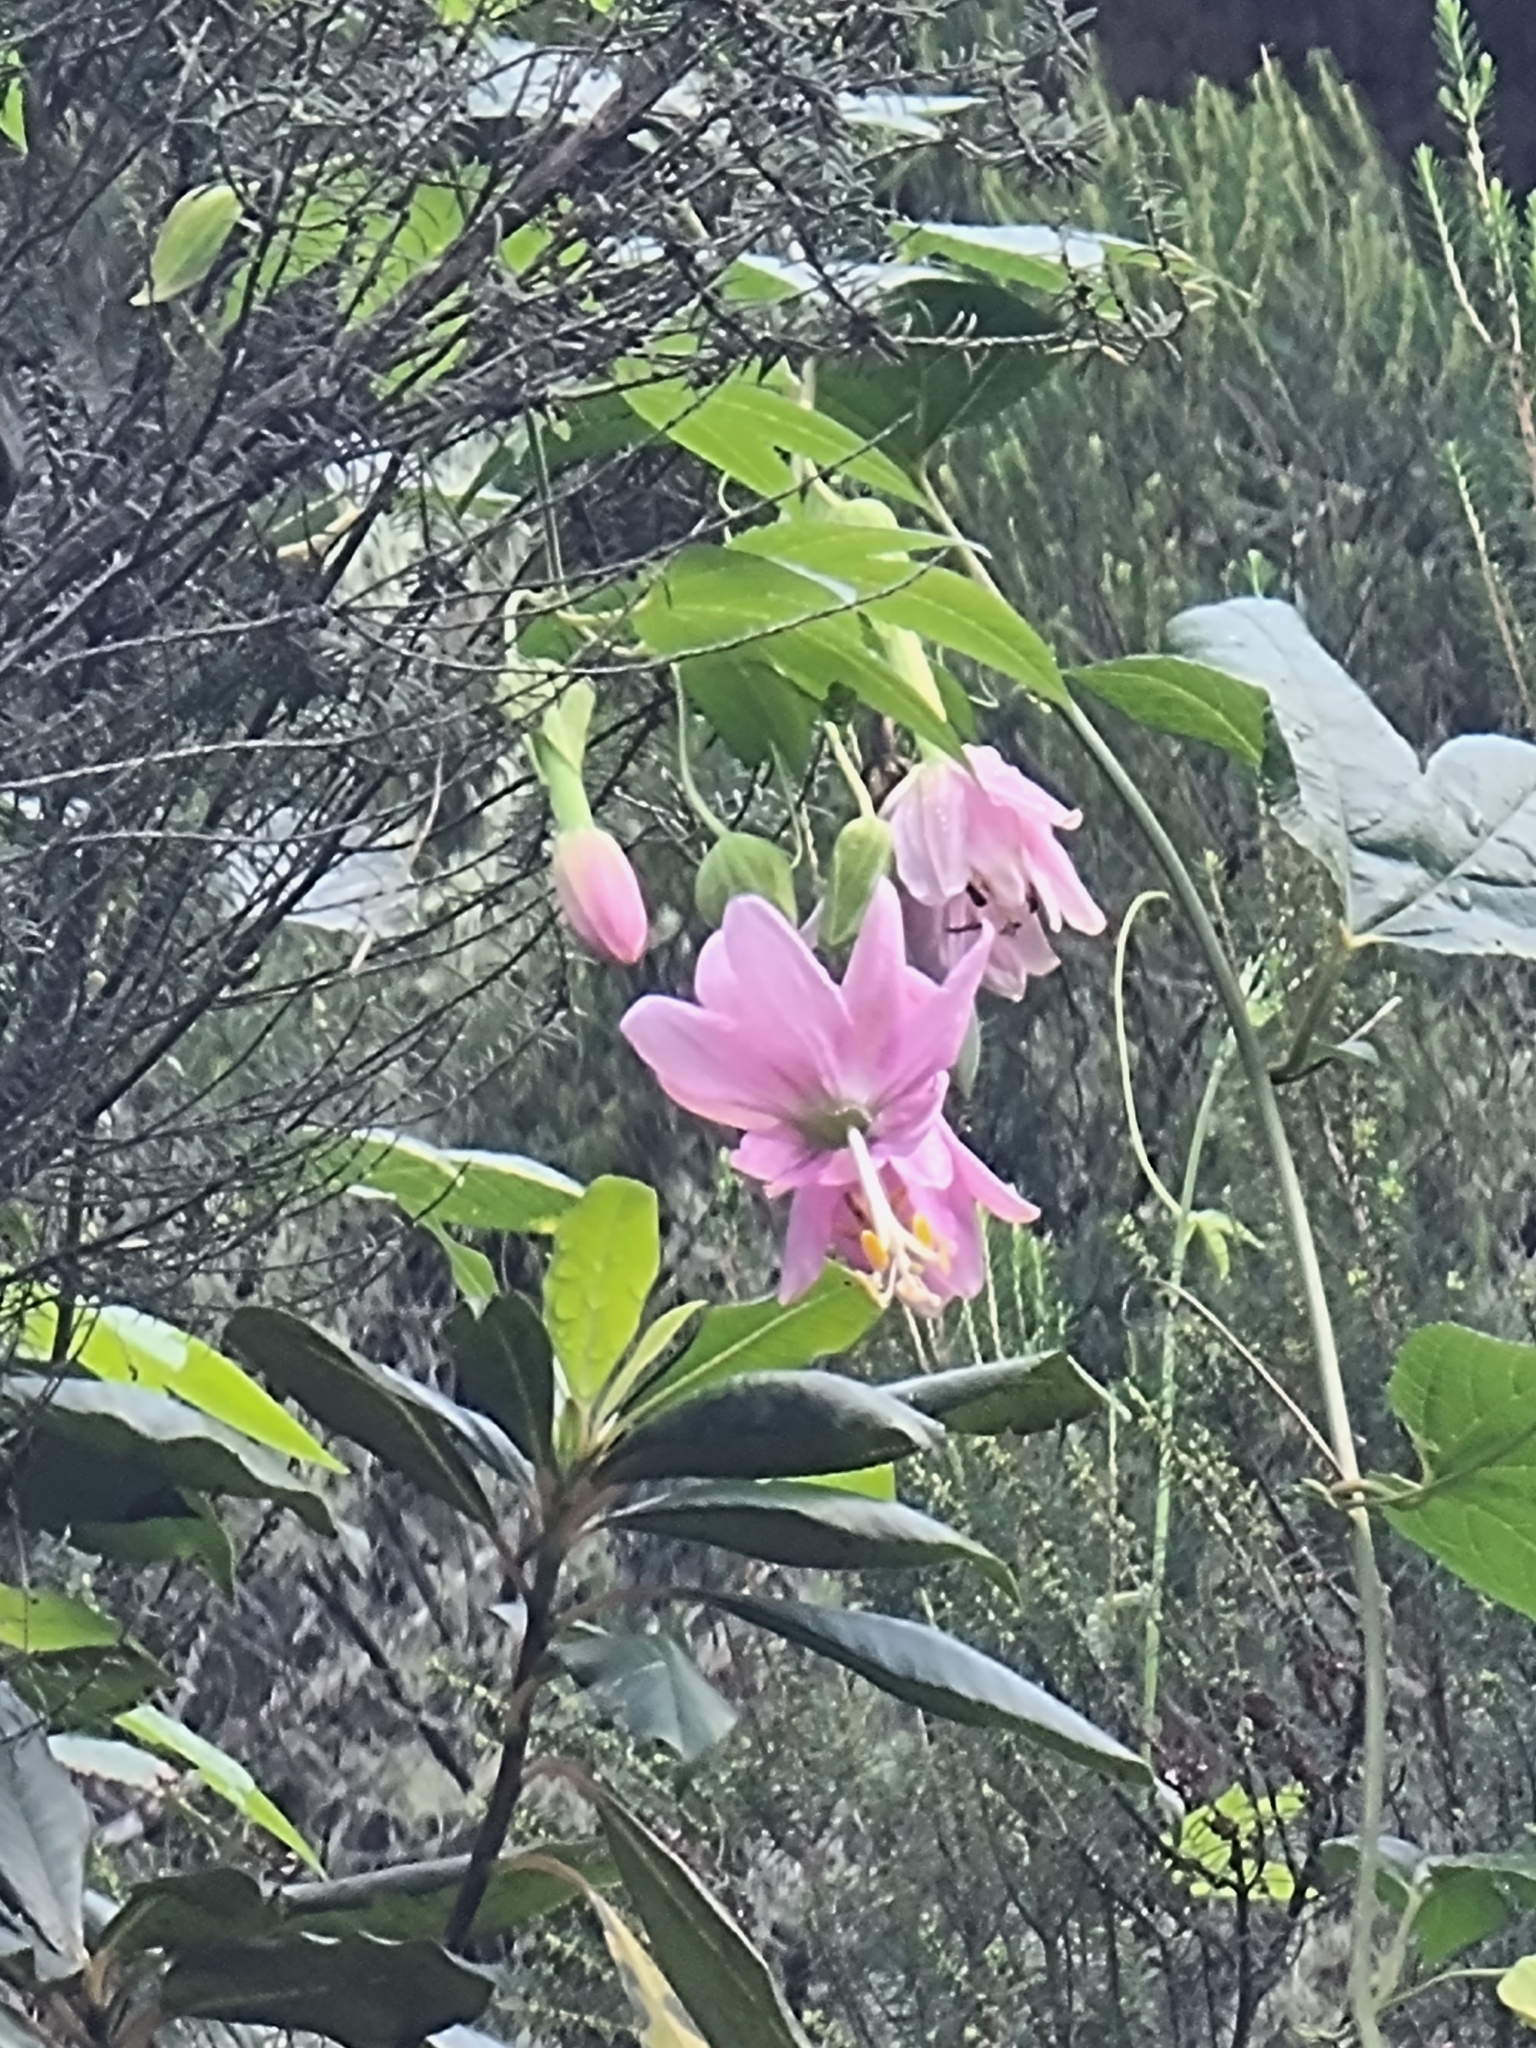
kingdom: Plantae
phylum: Tracheophyta
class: Magnoliopsida
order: Malpighiales
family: Passifloraceae
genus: Passiflora
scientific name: Passiflora tarminiana
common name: Banana poka
